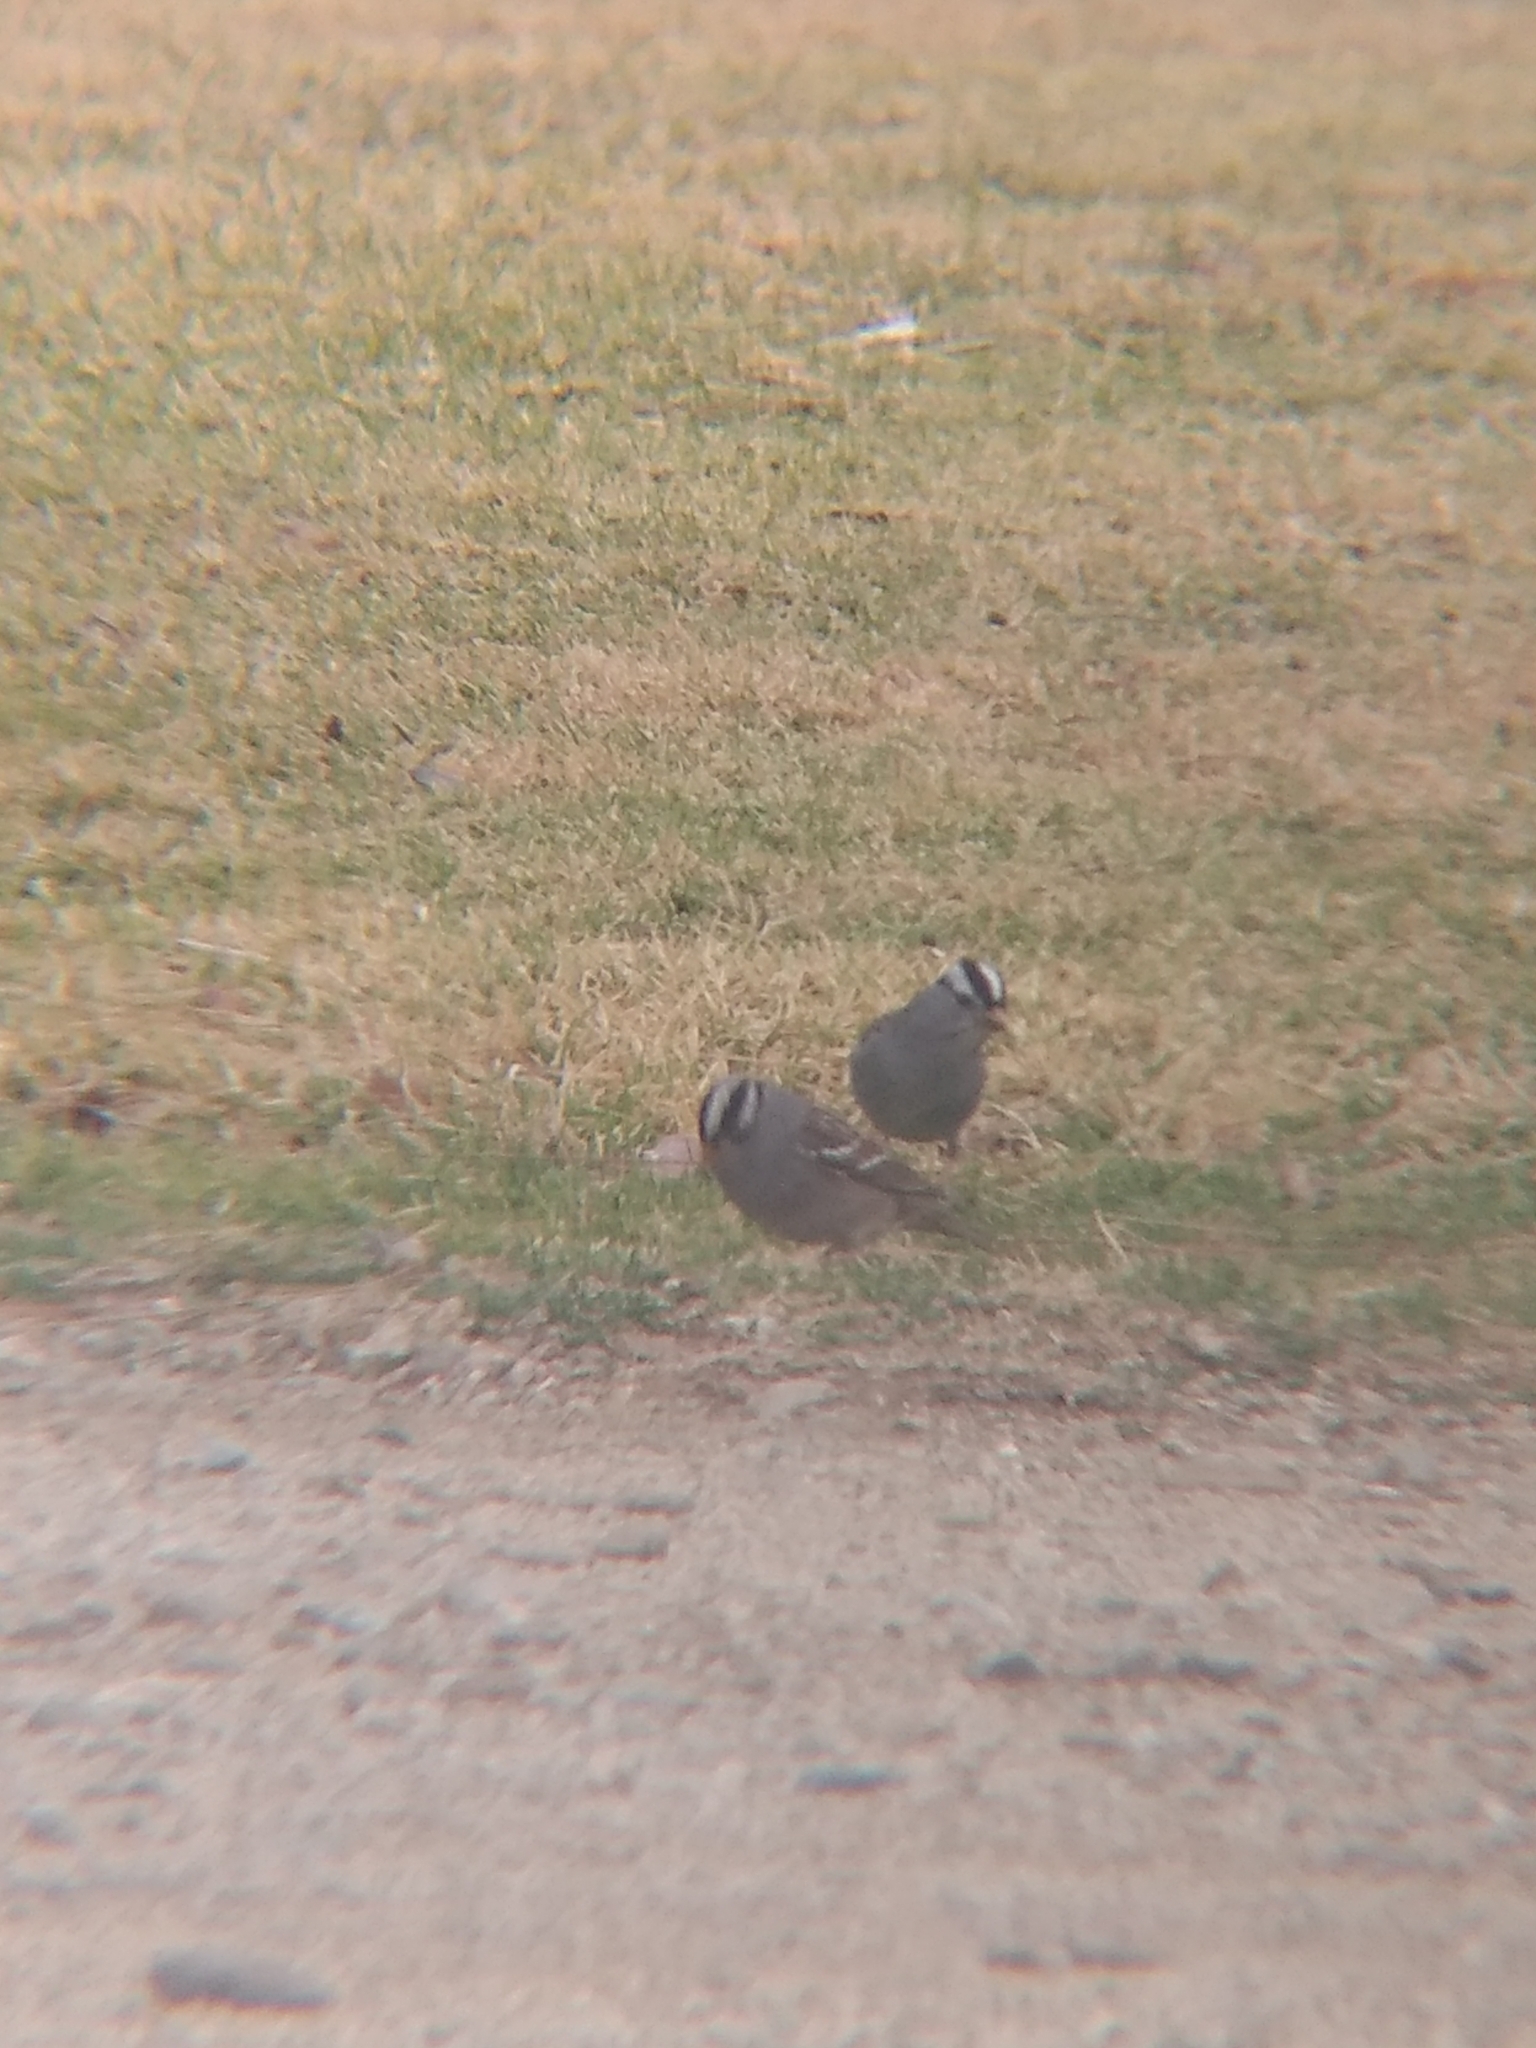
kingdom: Animalia
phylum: Chordata
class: Aves
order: Passeriformes
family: Passerellidae
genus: Zonotrichia
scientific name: Zonotrichia leucophrys
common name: White-crowned sparrow
